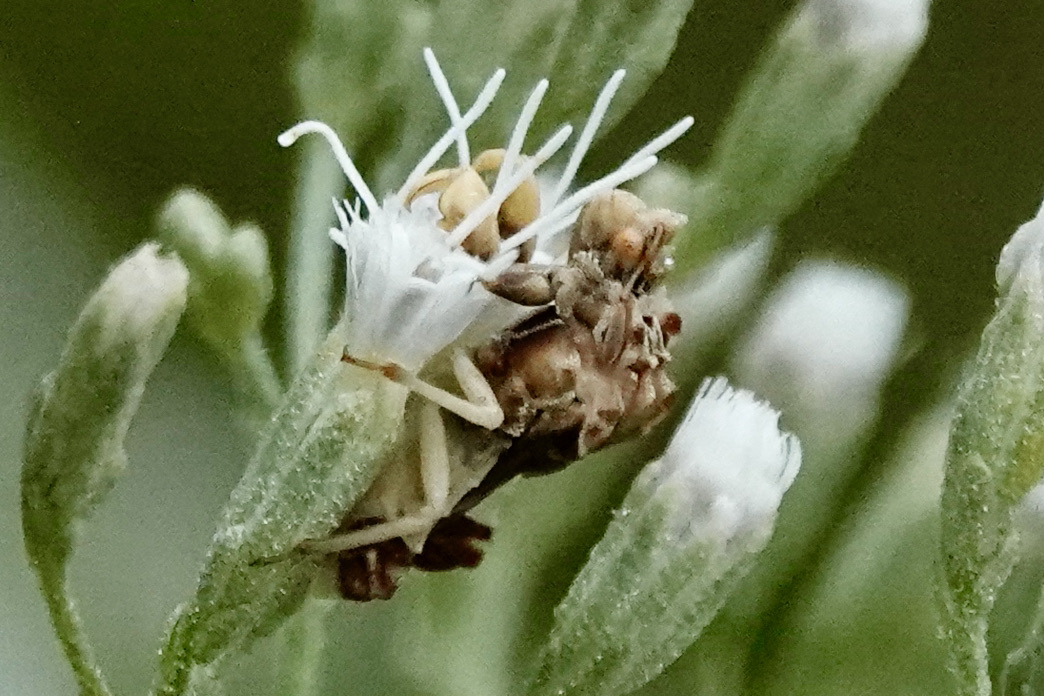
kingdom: Animalia
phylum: Arthropoda
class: Insecta
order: Hemiptera
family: Reduviidae
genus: Phymata
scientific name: Phymata fasciata
